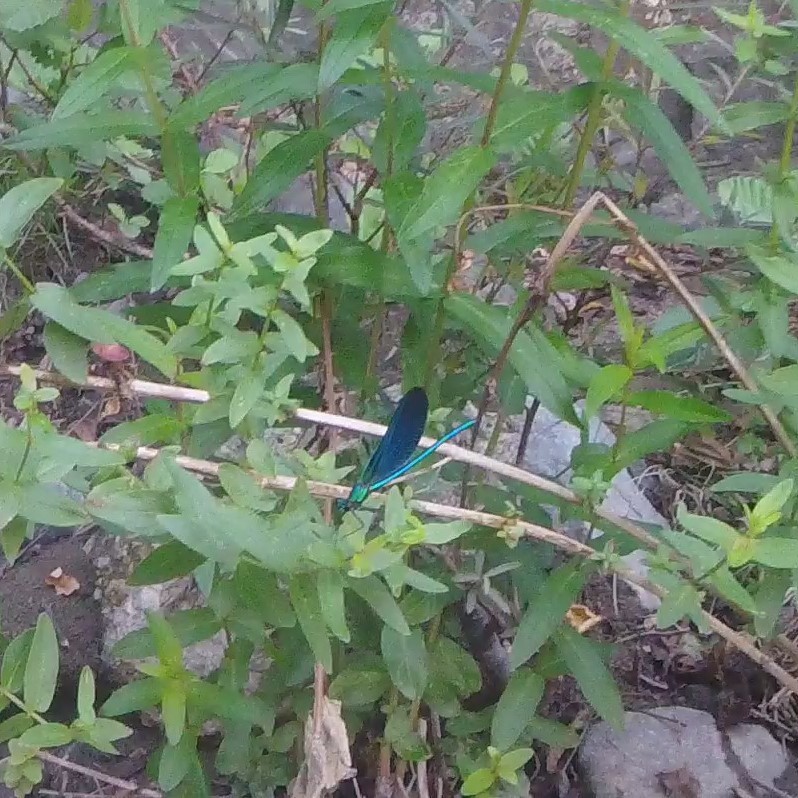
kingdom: Animalia
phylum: Arthropoda
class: Insecta
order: Odonata
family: Calopterygidae
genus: Calopteryx
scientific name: Calopteryx virgo
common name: Beautiful demoiselle
